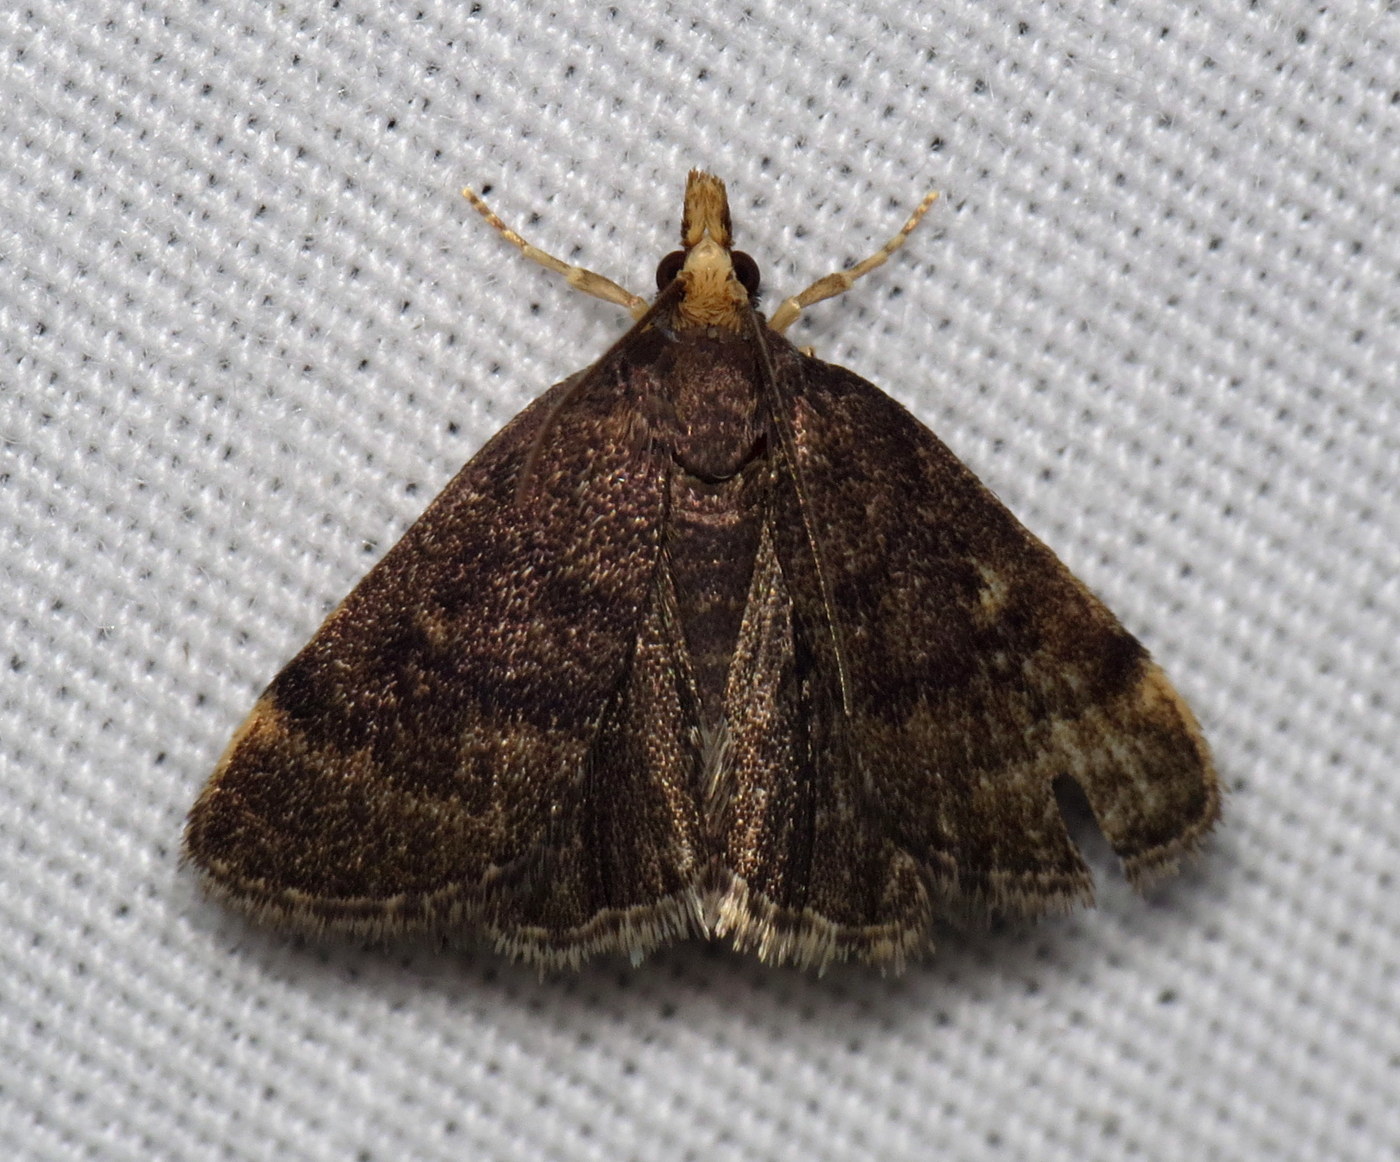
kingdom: Animalia
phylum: Arthropoda
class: Insecta
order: Lepidoptera
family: Crambidae
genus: Pyrausta
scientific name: Pyrausta merrickalis
